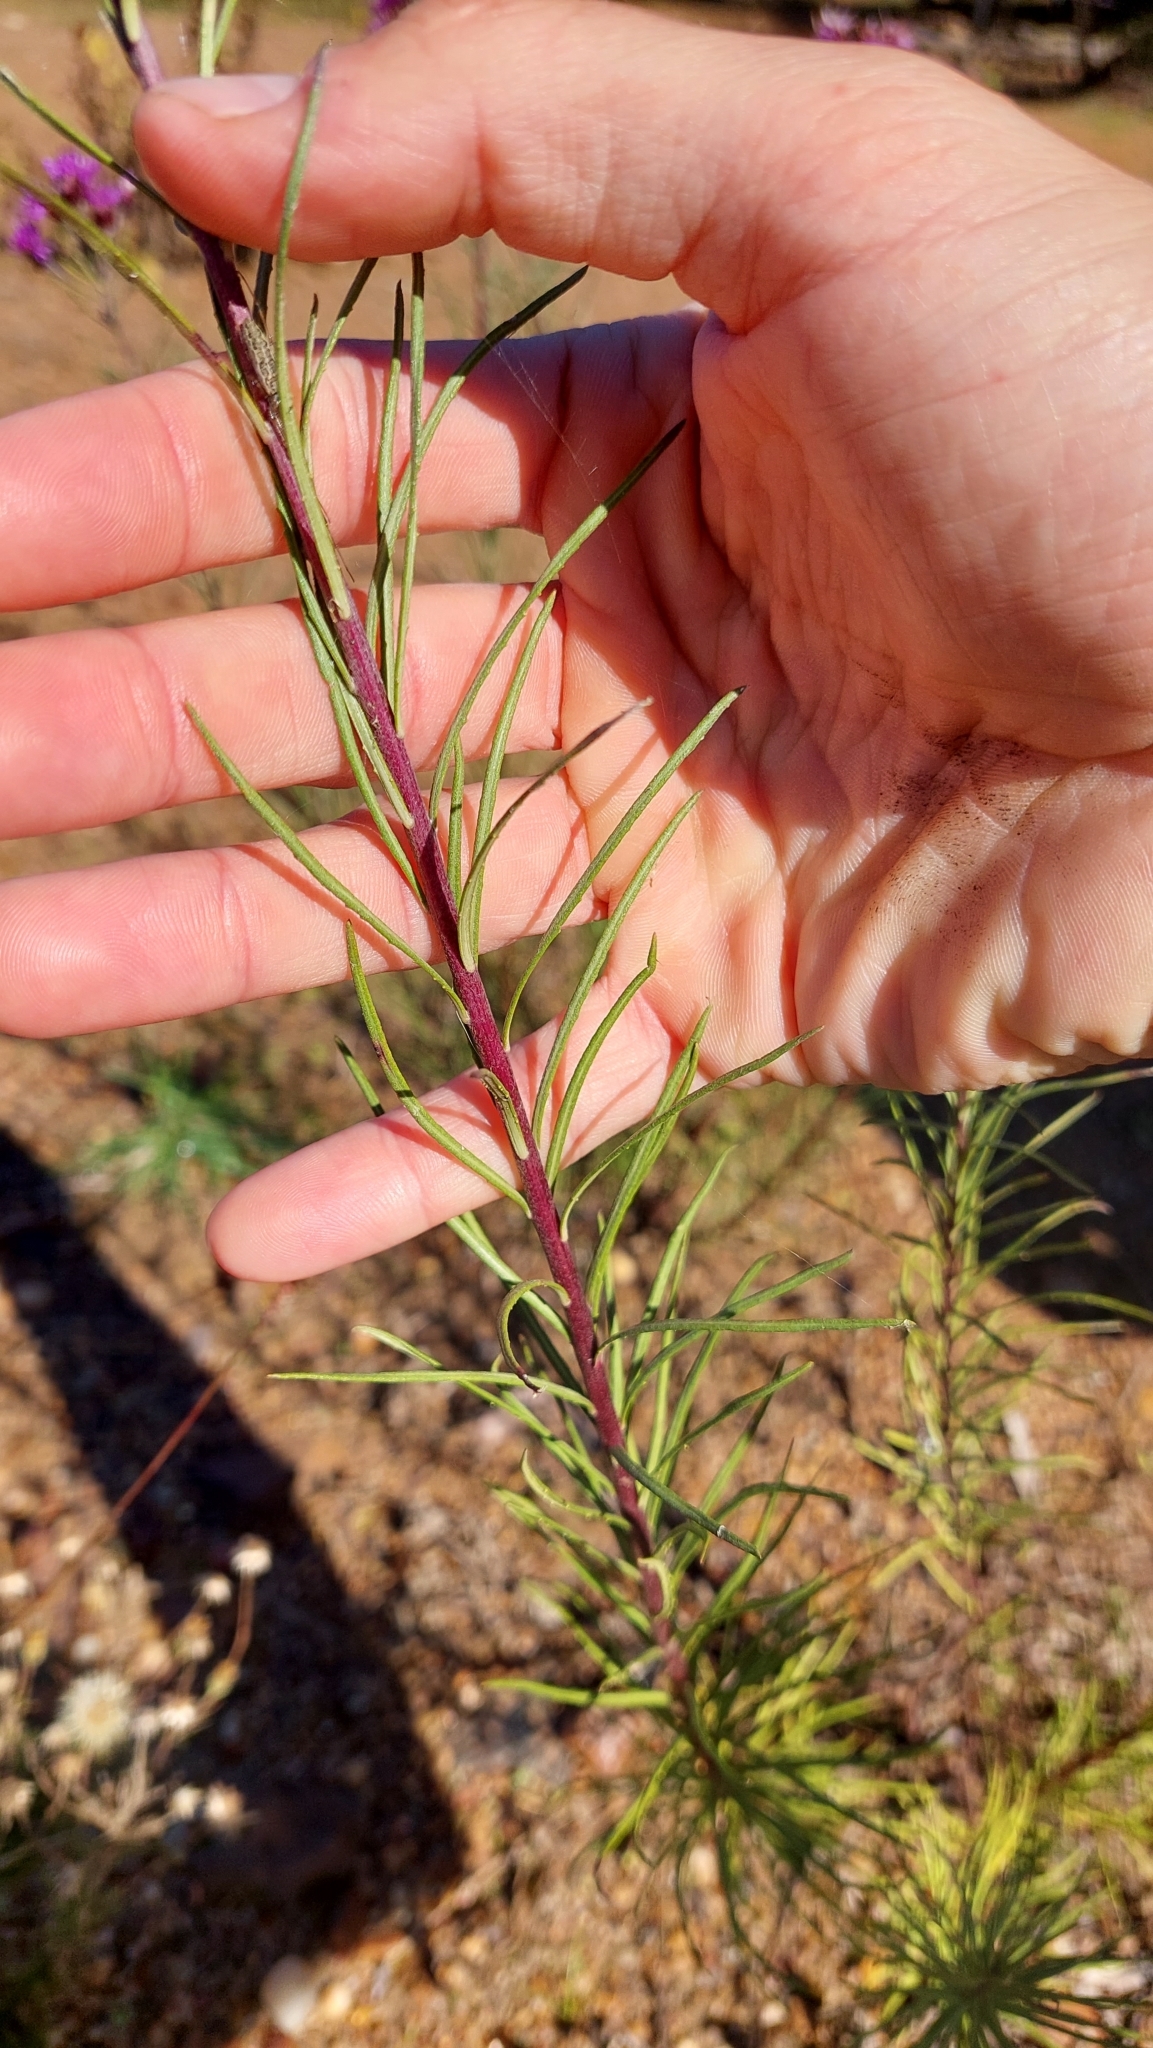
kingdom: Plantae
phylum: Tracheophyta
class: Magnoliopsida
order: Asterales
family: Asteraceae
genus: Vernonanthura
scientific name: Vernonanthura nudiflora
